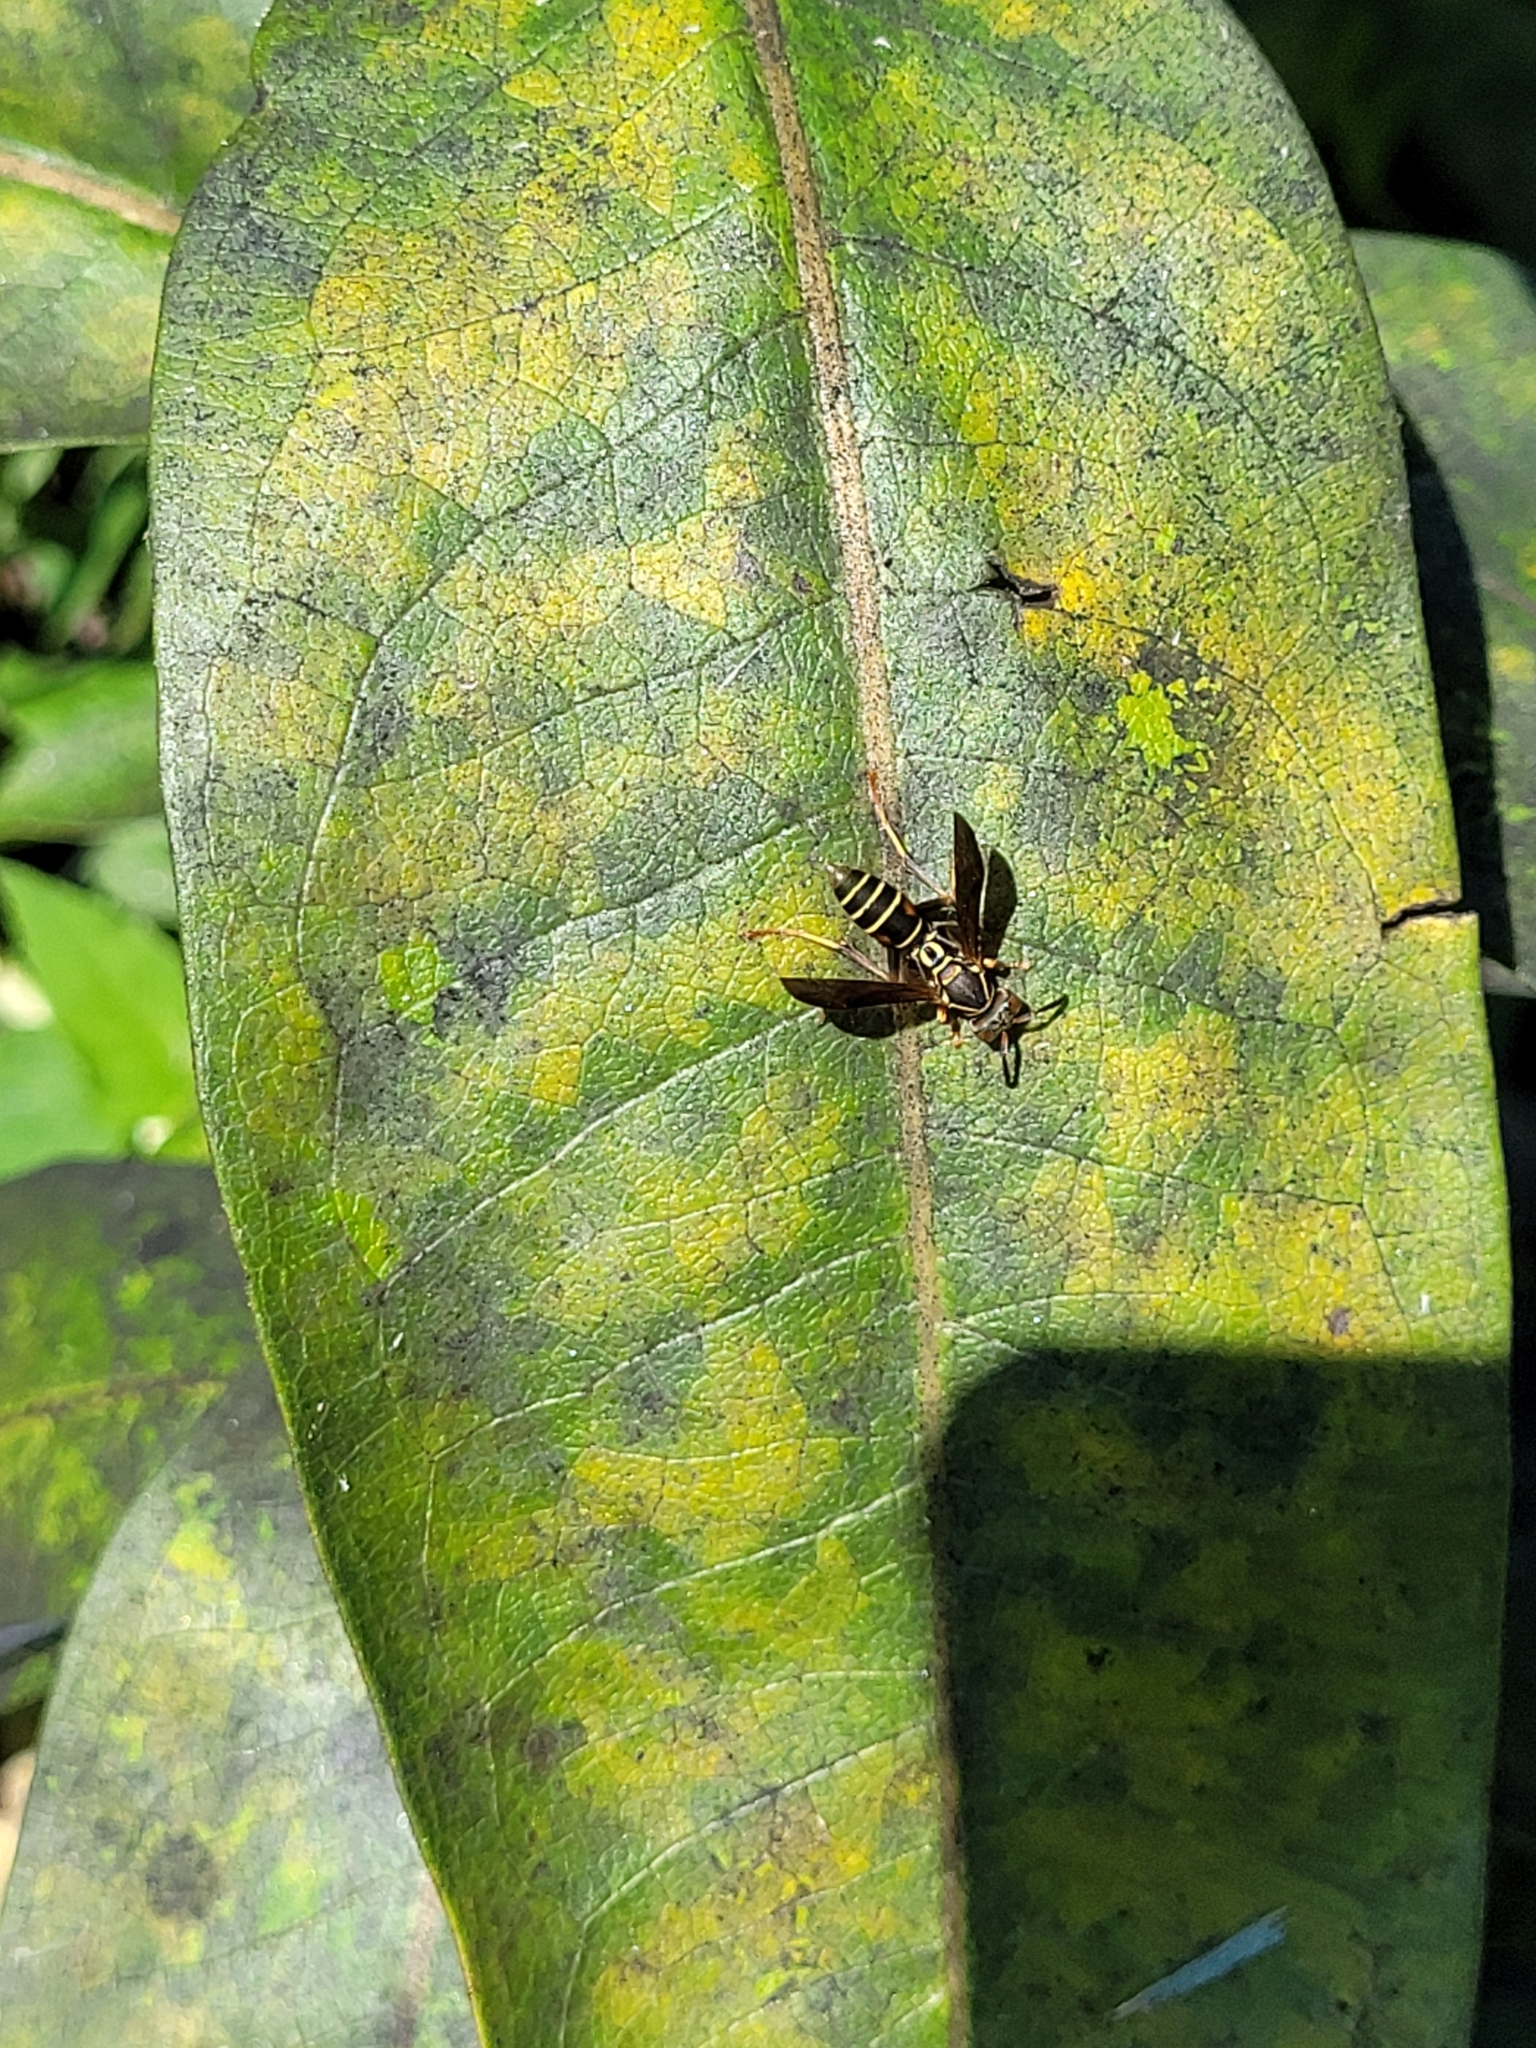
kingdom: Animalia
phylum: Arthropoda
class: Insecta
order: Hymenoptera
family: Eumenidae
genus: Polistes
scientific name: Polistes fuscatus
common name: Dark paper wasp
